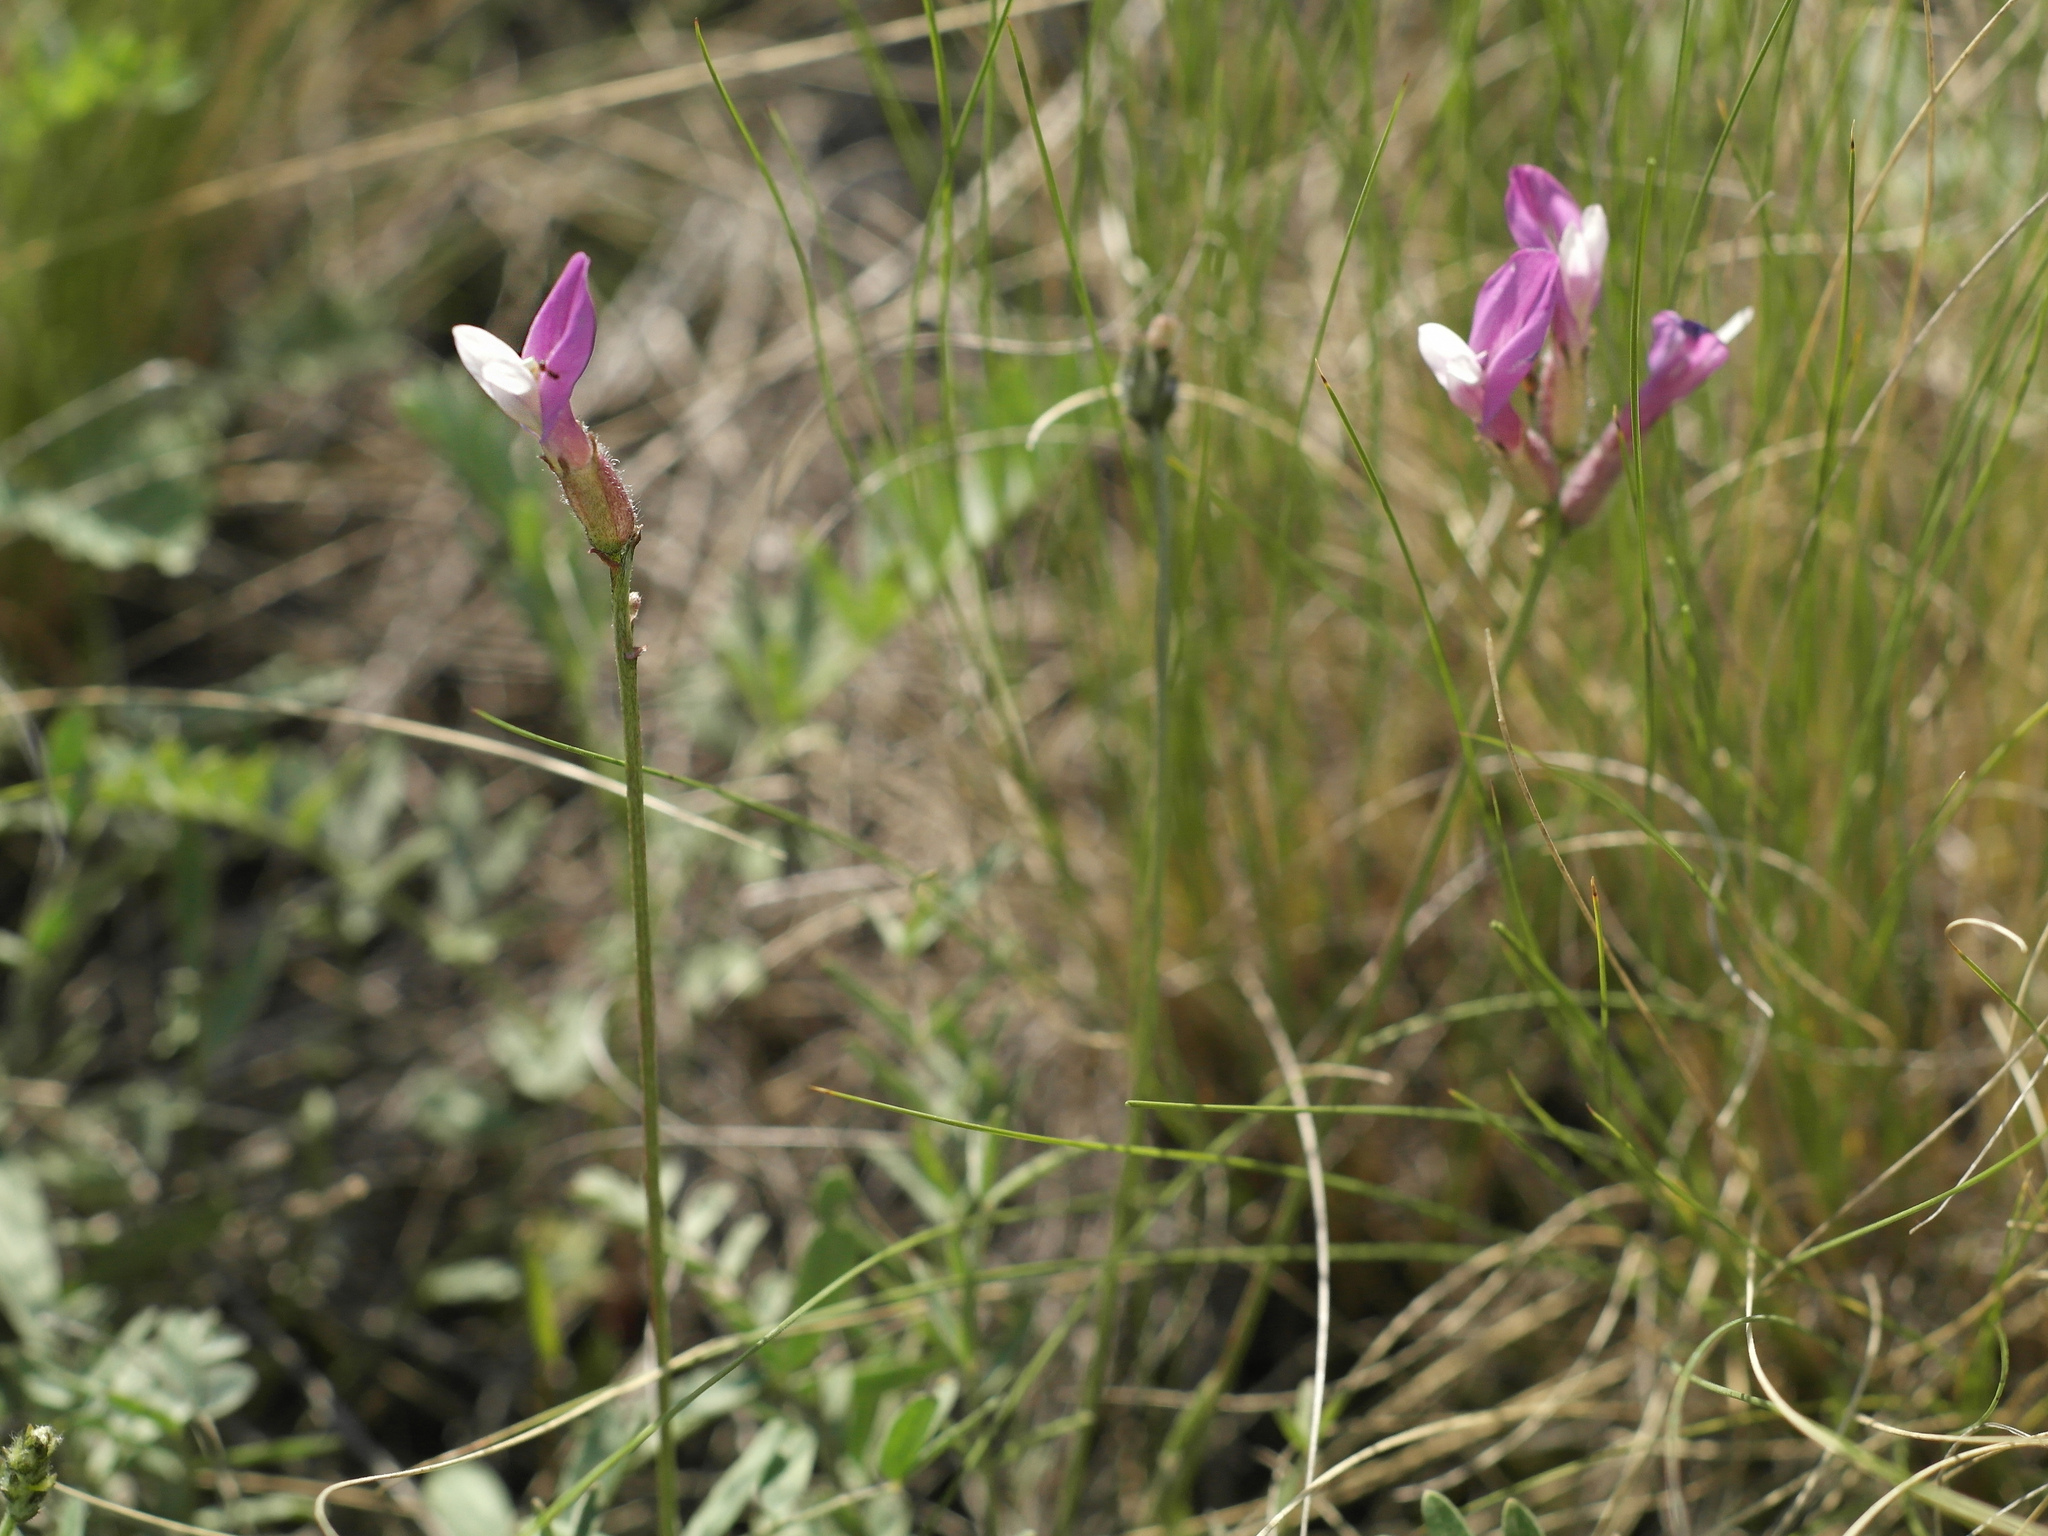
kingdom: Plantae
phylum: Tracheophyta
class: Magnoliopsida
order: Fabales
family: Fabaceae
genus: Astragalus
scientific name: Astragalus macropus
